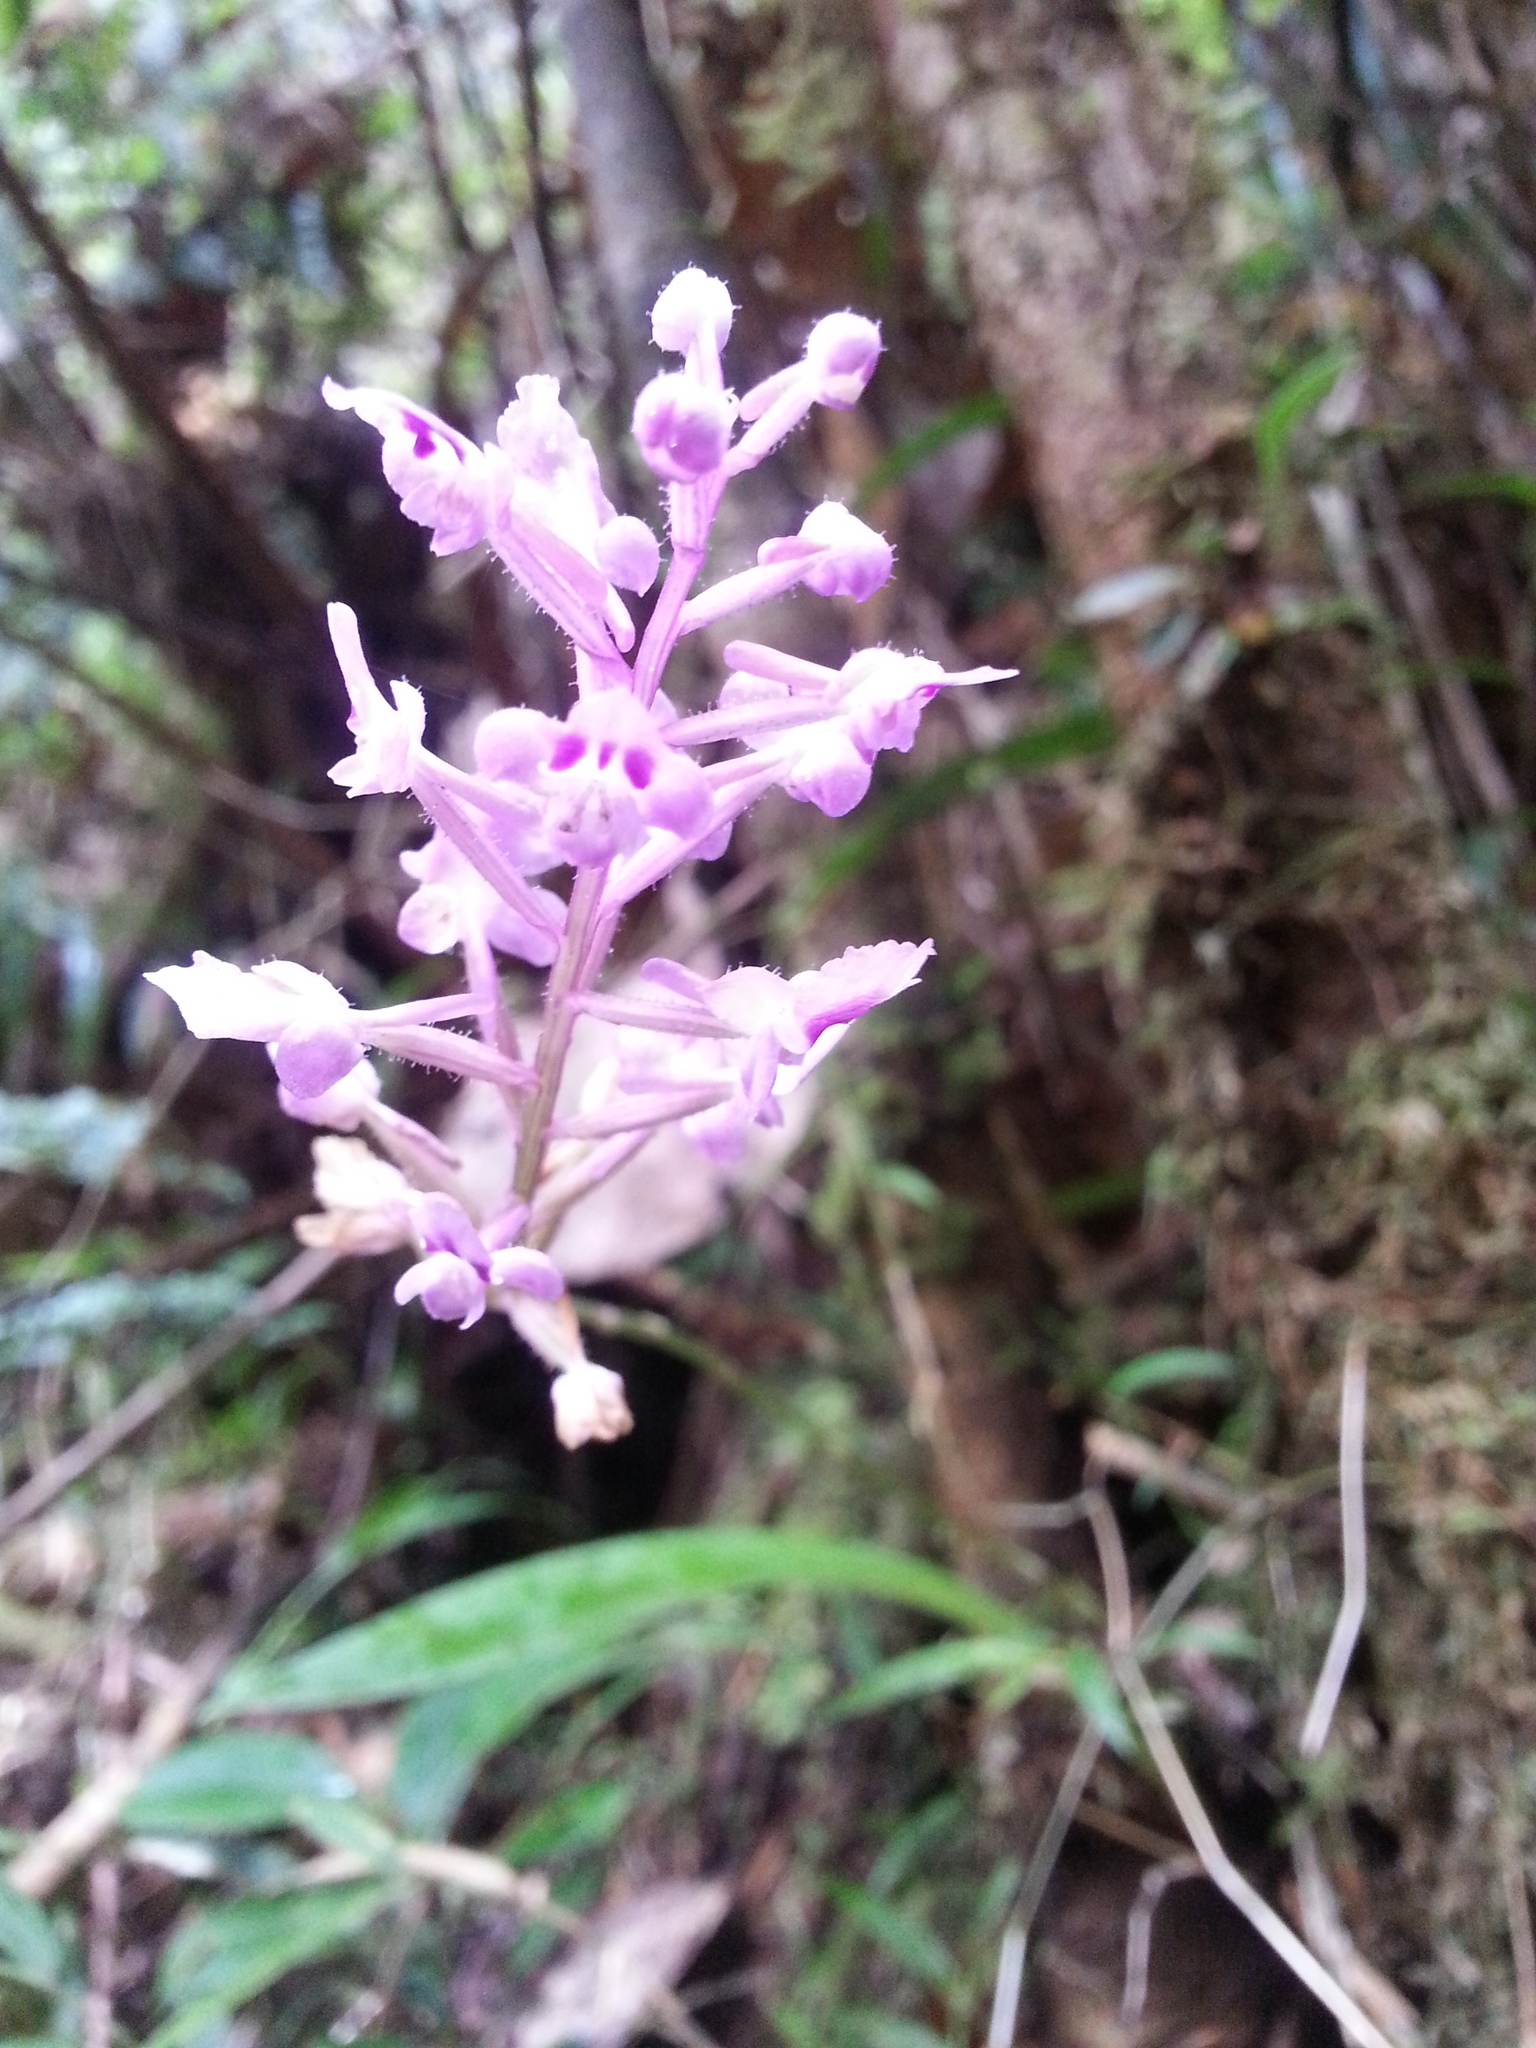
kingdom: Plantae
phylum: Tracheophyta
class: Liliopsida
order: Asparagales
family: Orchidaceae
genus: Cynorkis
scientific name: Cynorkis ridleyi
